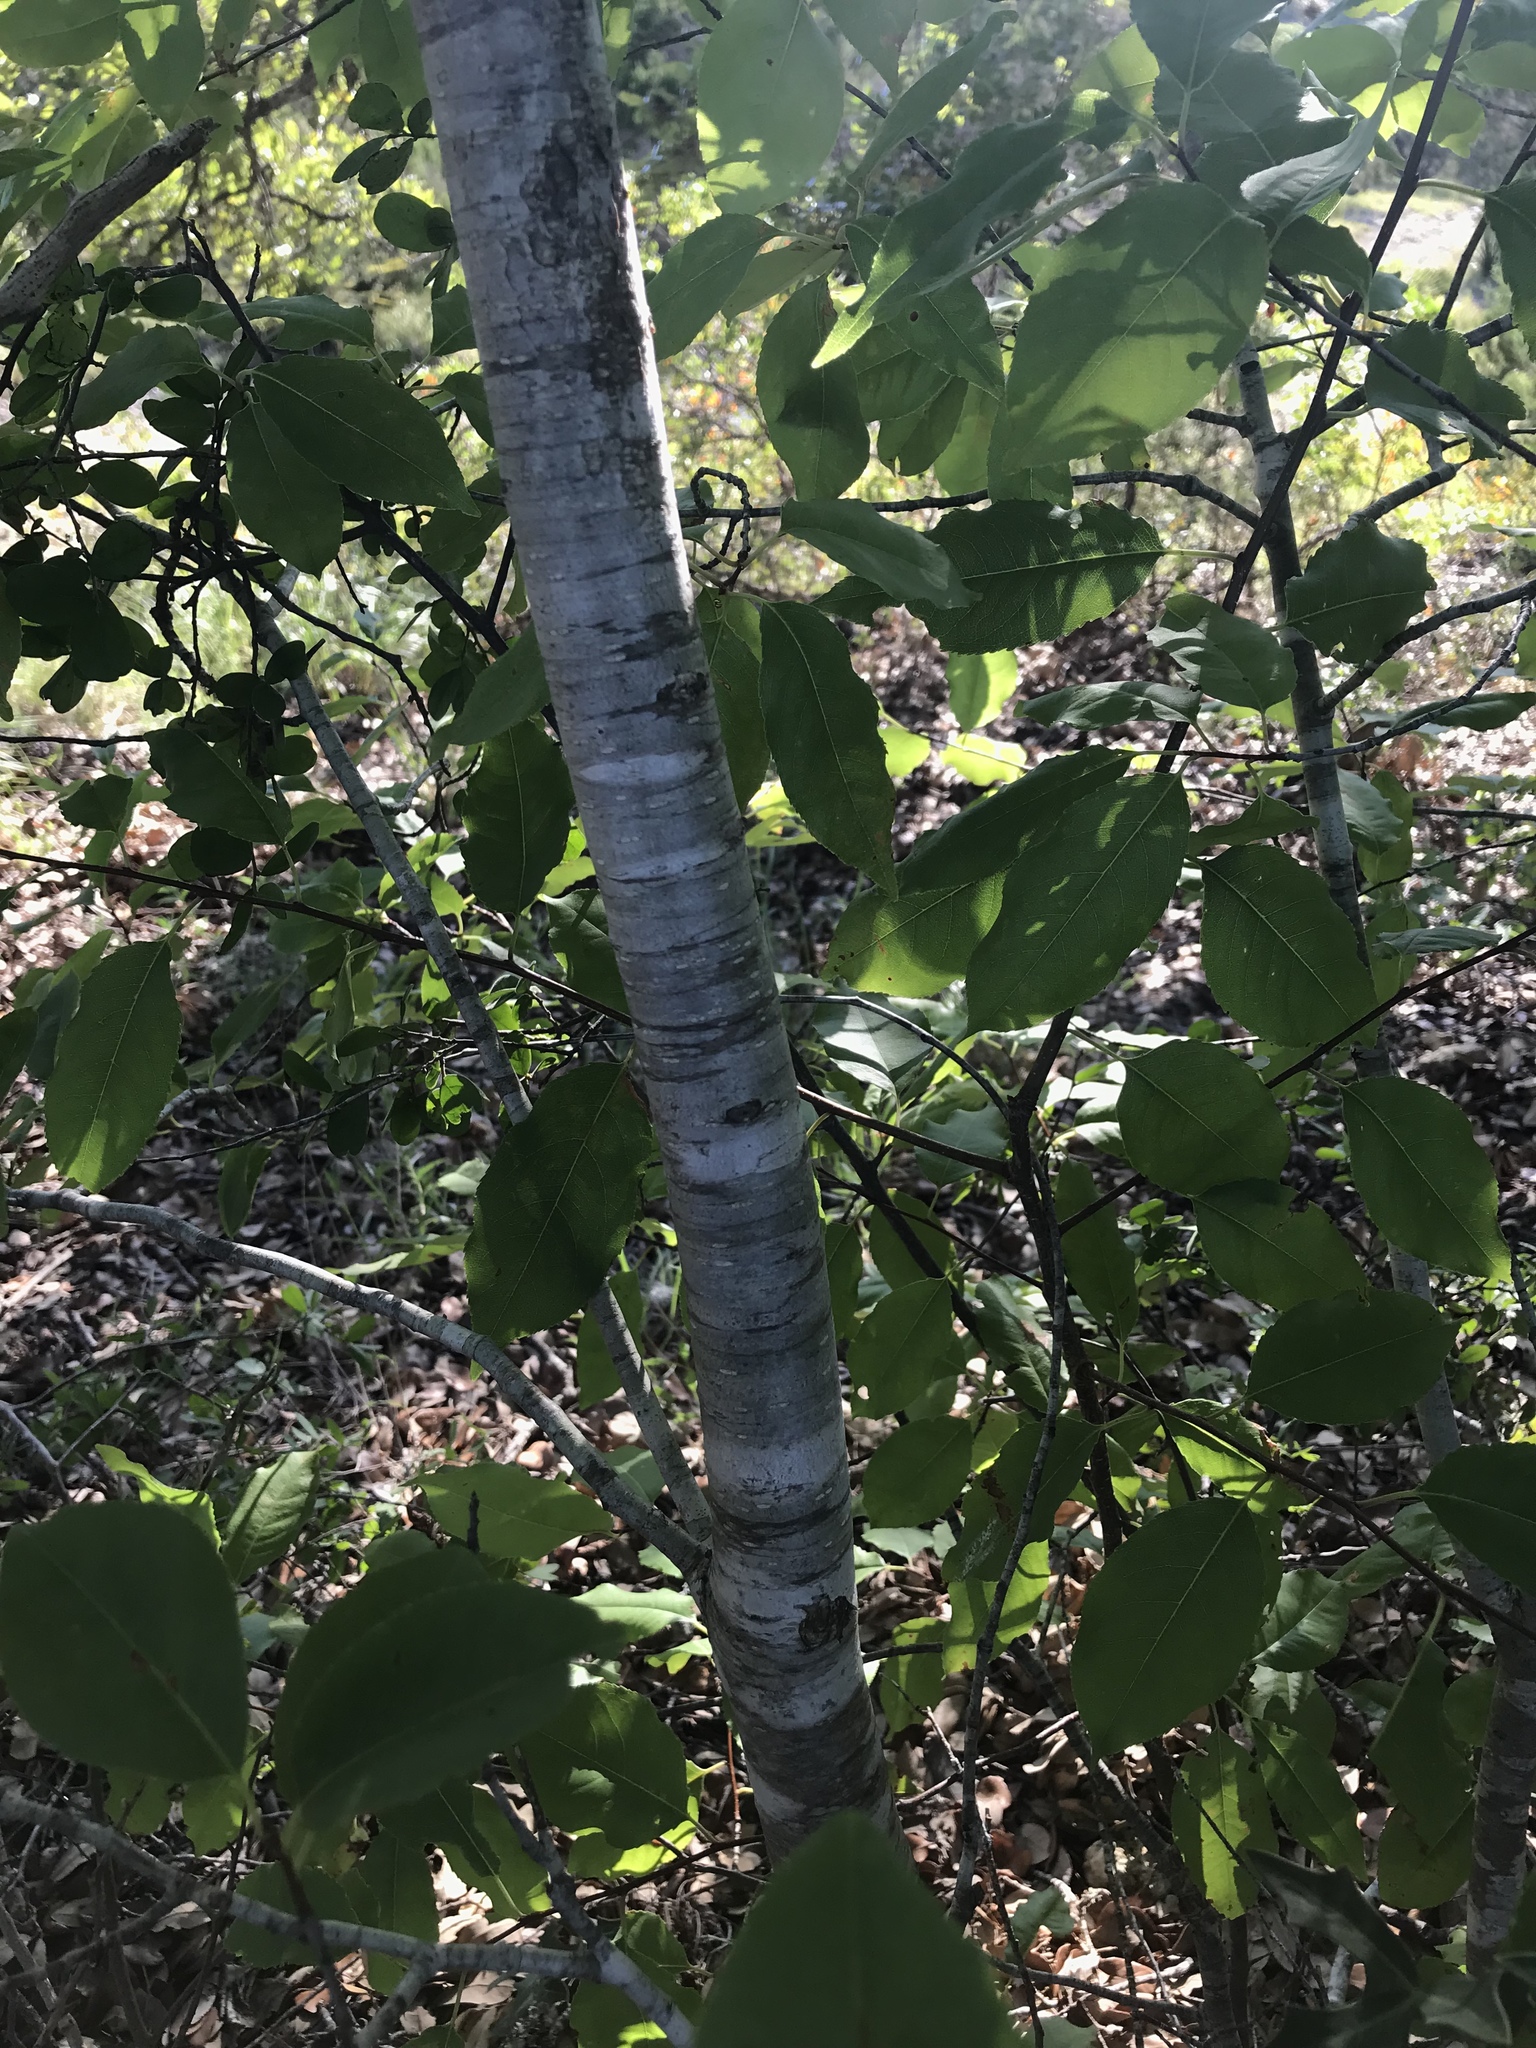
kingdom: Plantae
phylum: Tracheophyta
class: Magnoliopsida
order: Rosales
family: Rosaceae
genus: Prunus
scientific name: Prunus serotina
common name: Black cherry
